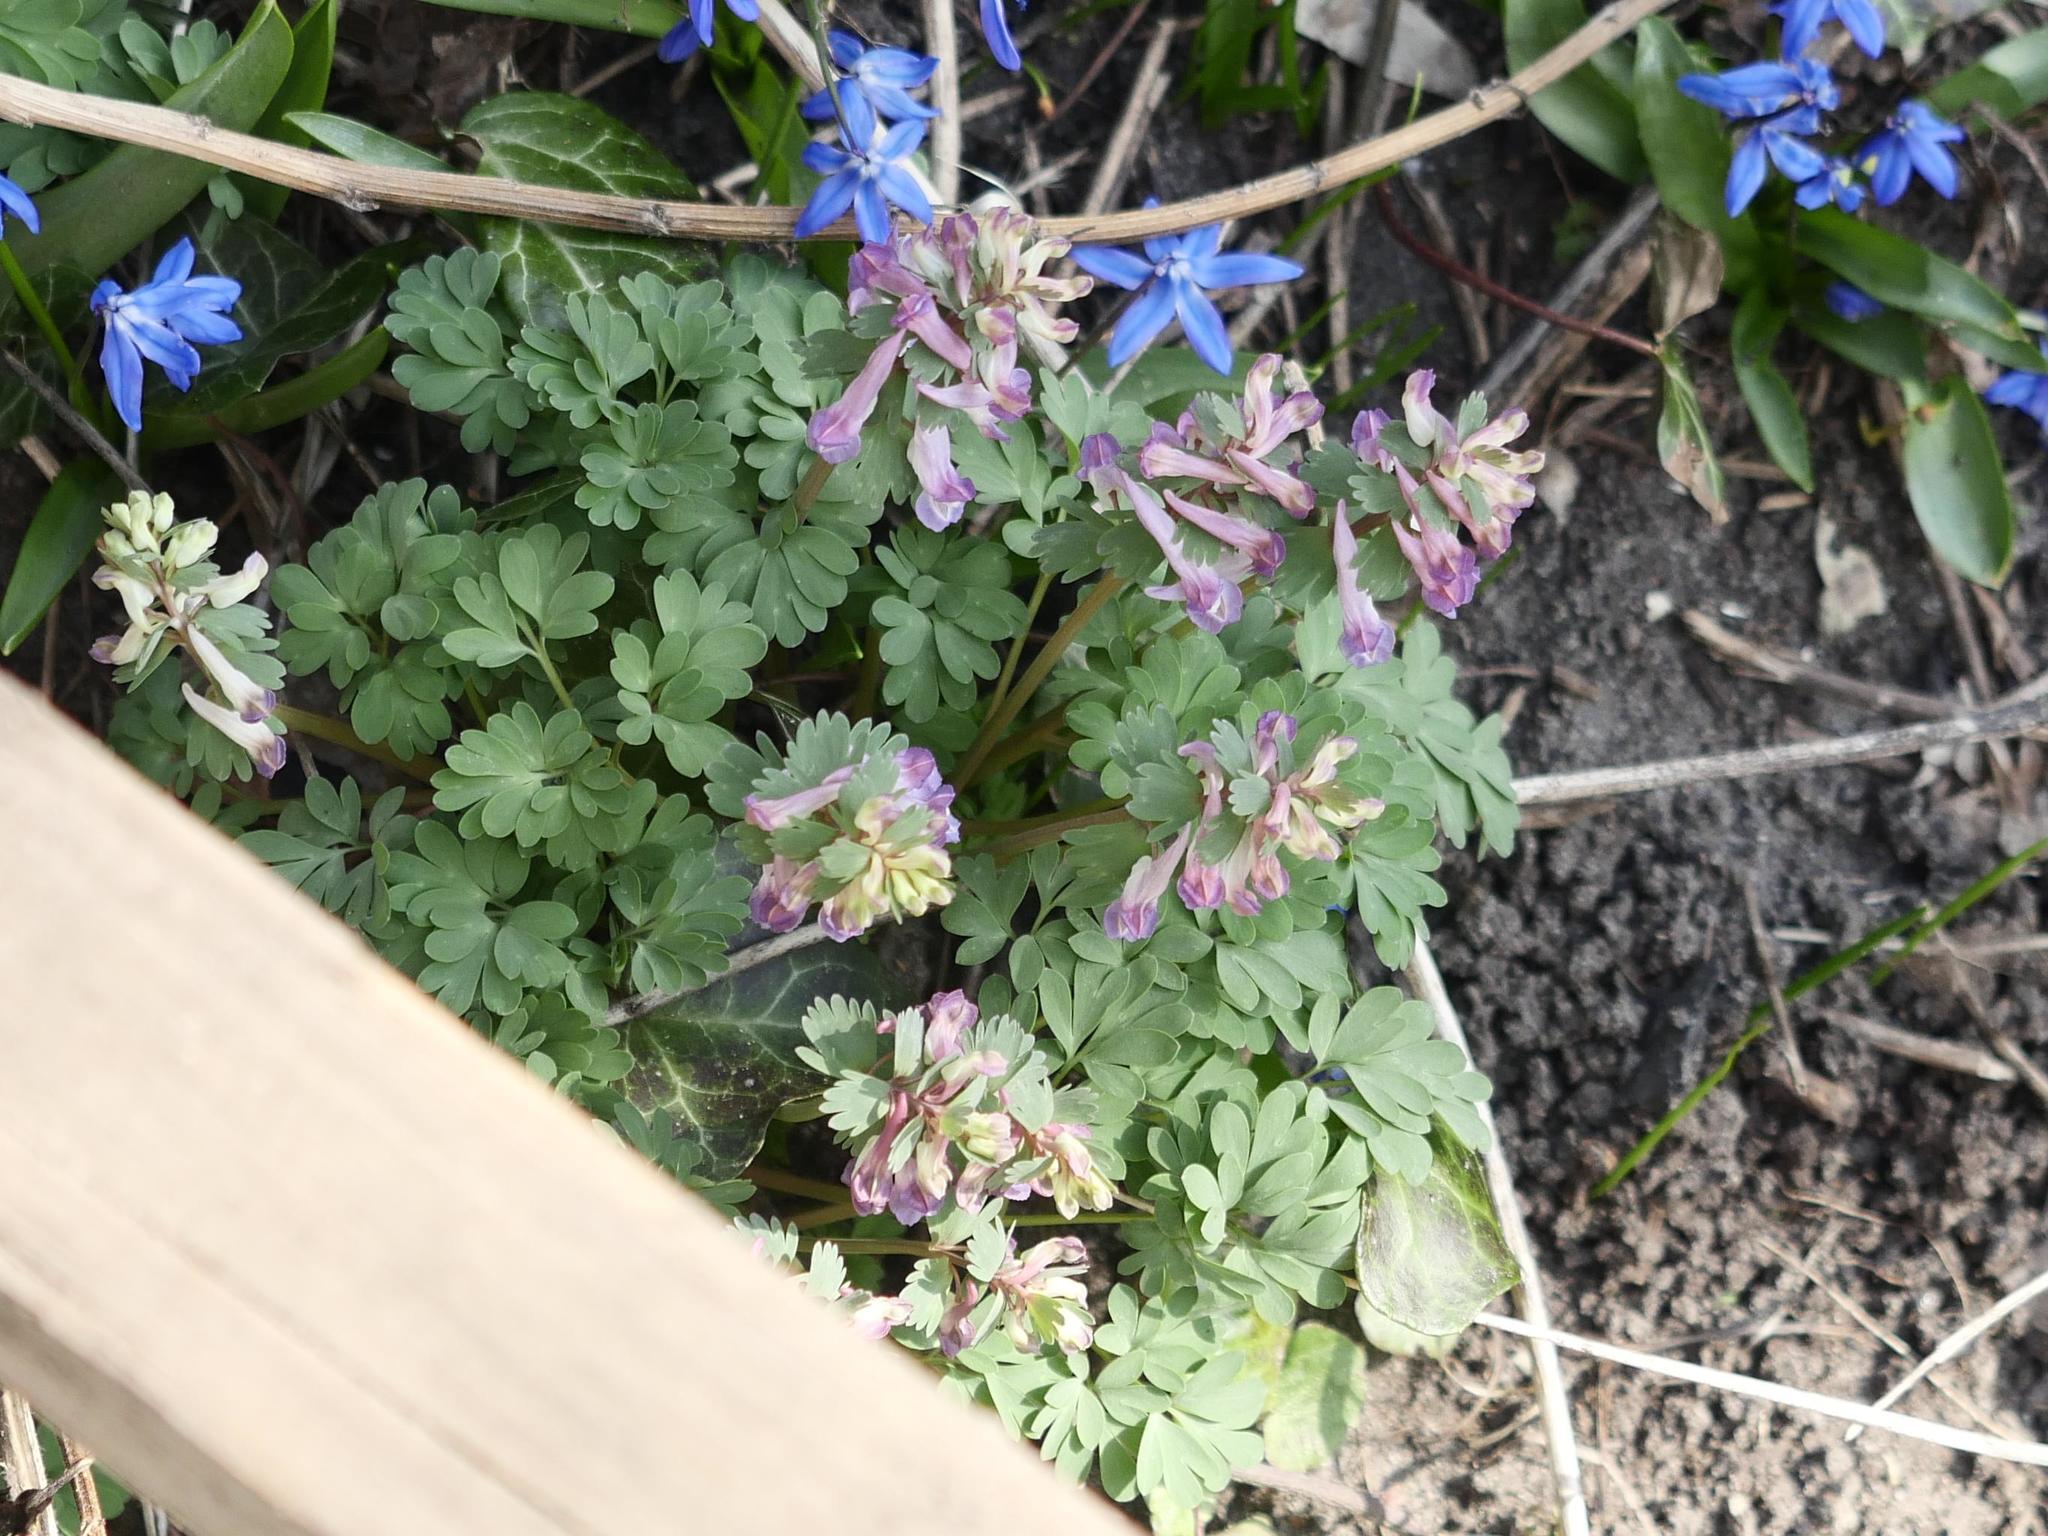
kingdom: Plantae
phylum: Tracheophyta
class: Magnoliopsida
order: Ranunculales
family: Papaveraceae
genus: Corydalis
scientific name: Corydalis solida
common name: Bird-in-a-bush
